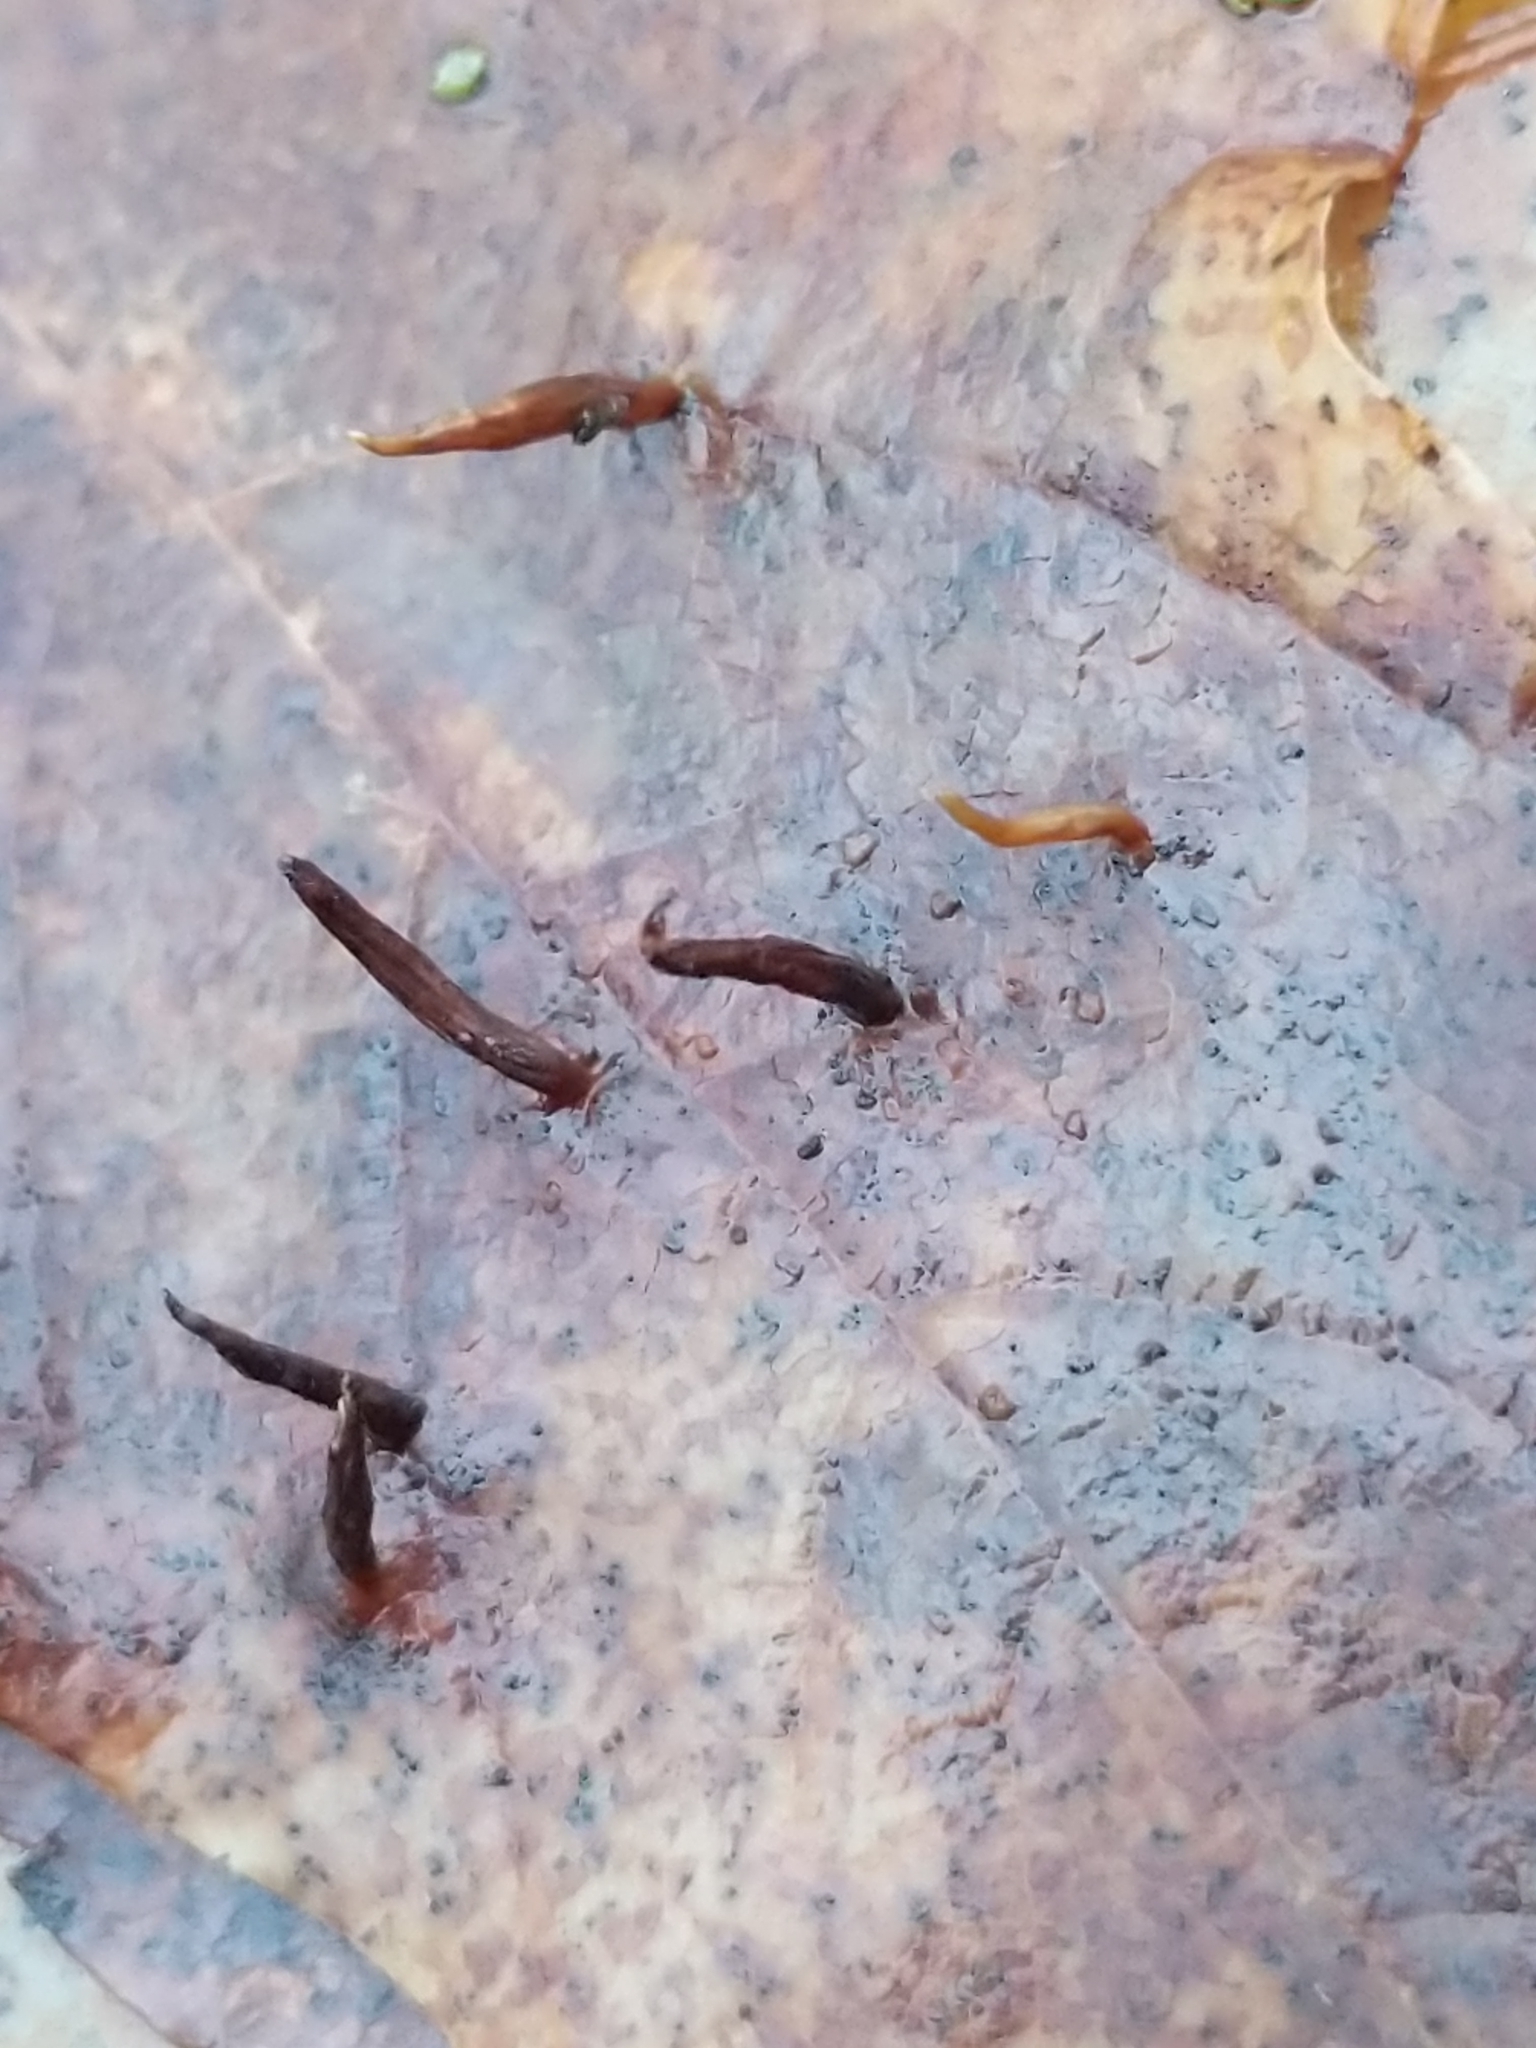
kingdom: Animalia
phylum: Arthropoda
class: Arachnida
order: Trombidiformes
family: Eriophyidae
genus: Vasates
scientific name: Vasates aceriscrumena
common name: Maple spindle gall mite
